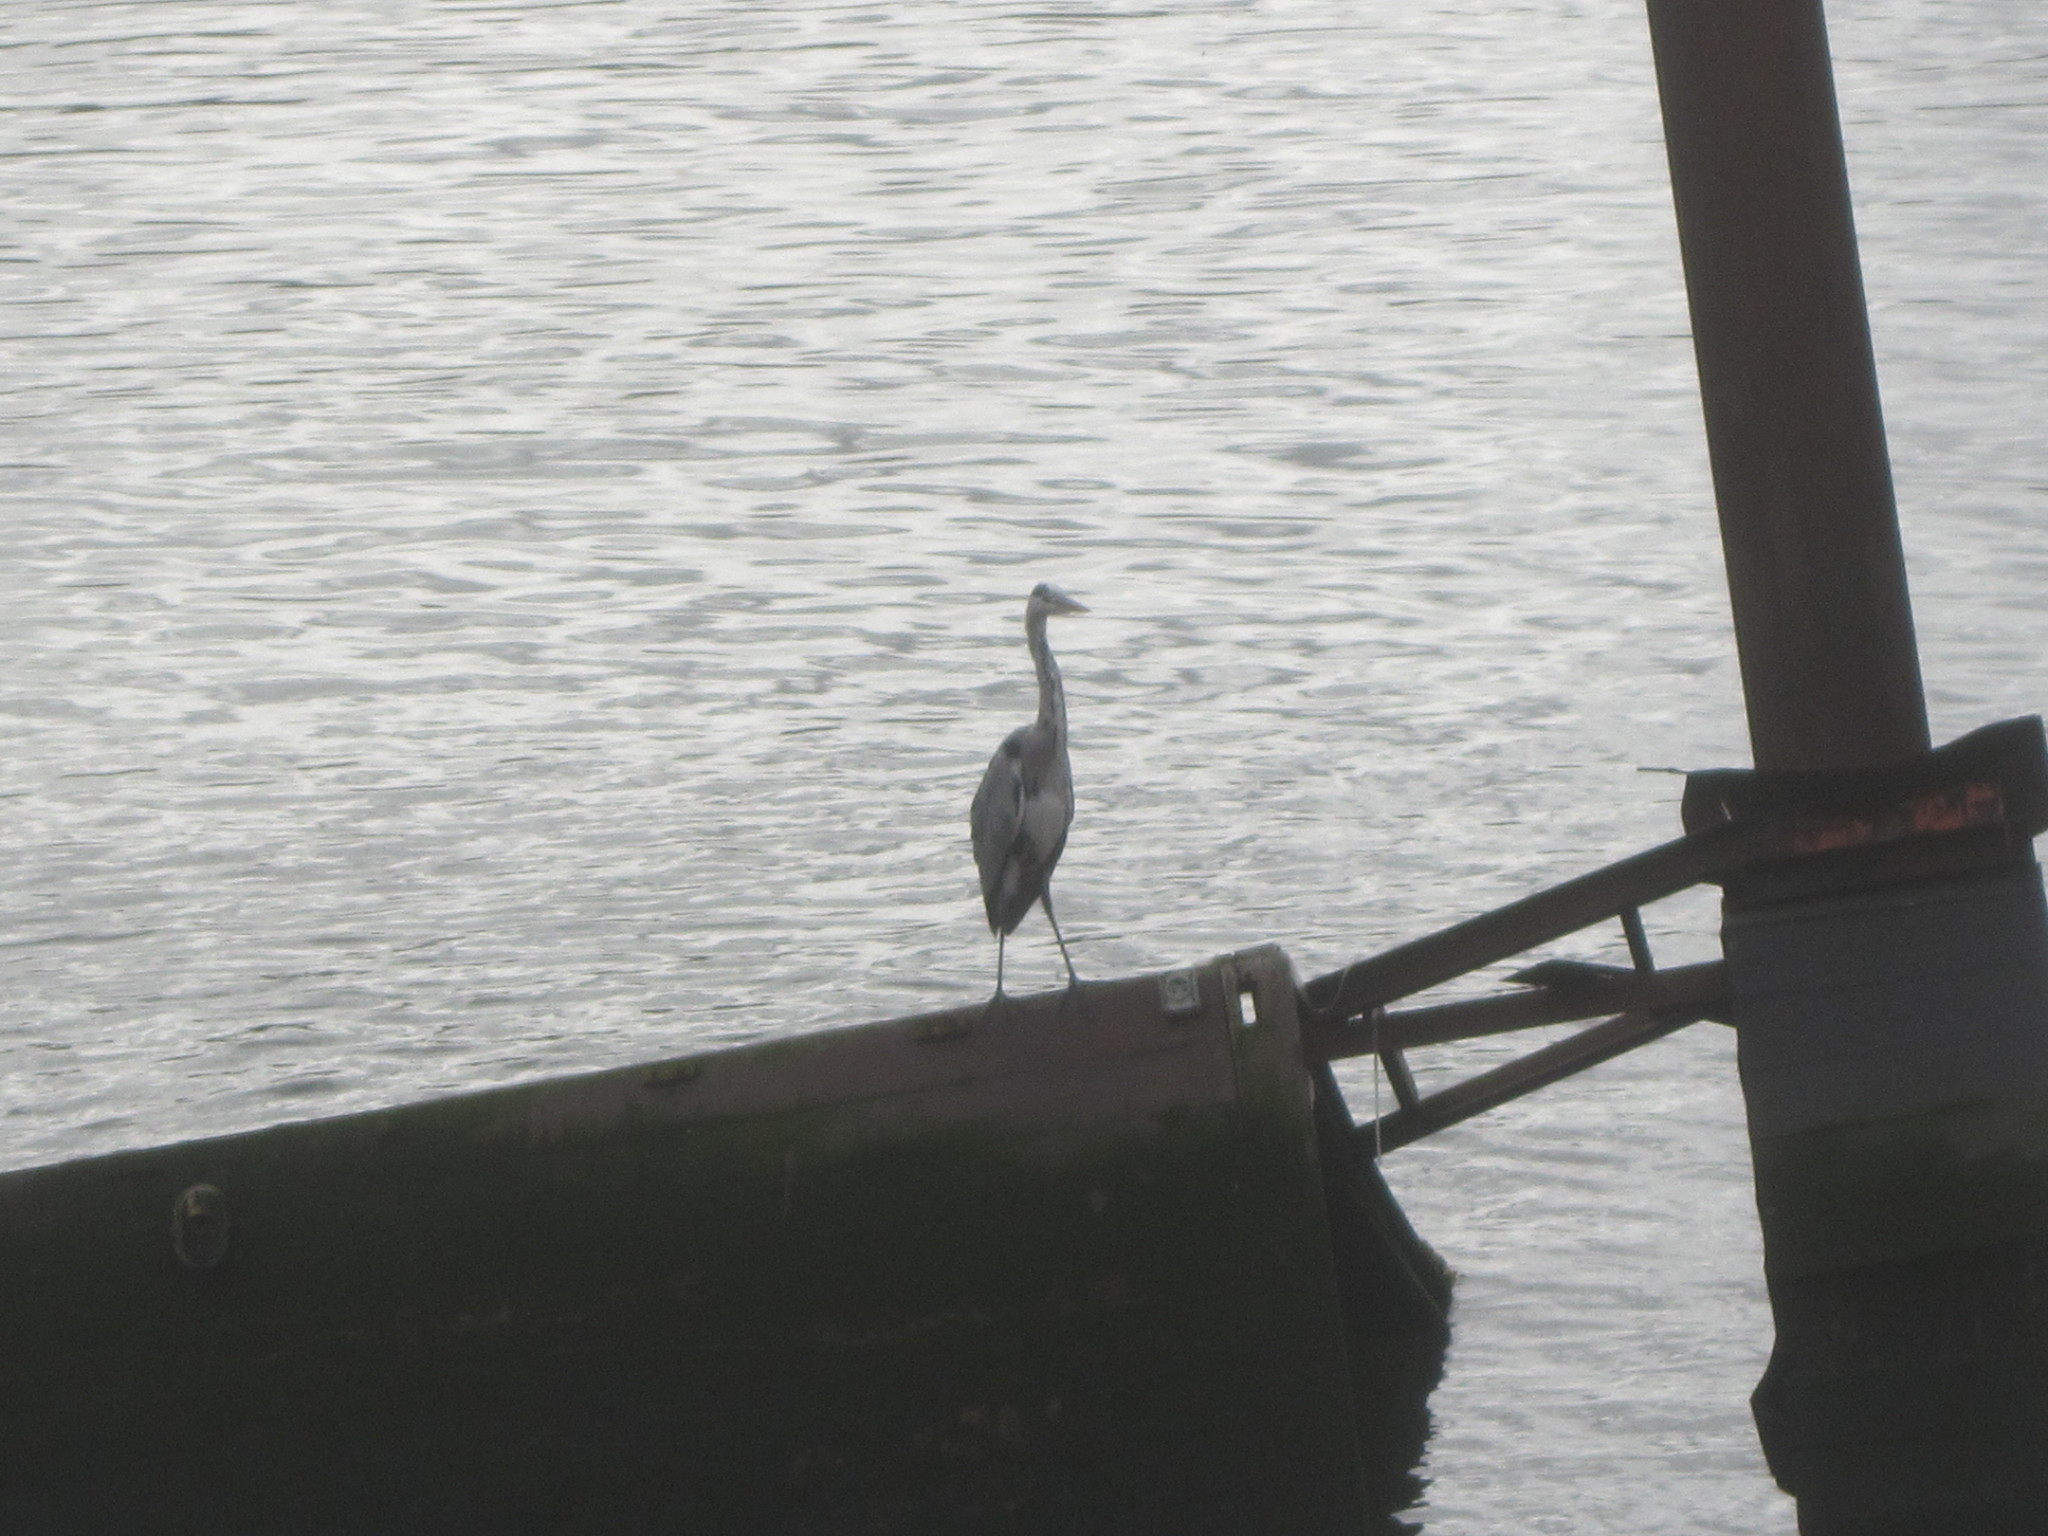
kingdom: Animalia
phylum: Chordata
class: Aves
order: Pelecaniformes
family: Ardeidae
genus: Ardea
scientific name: Ardea cinerea
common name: Grey heron
